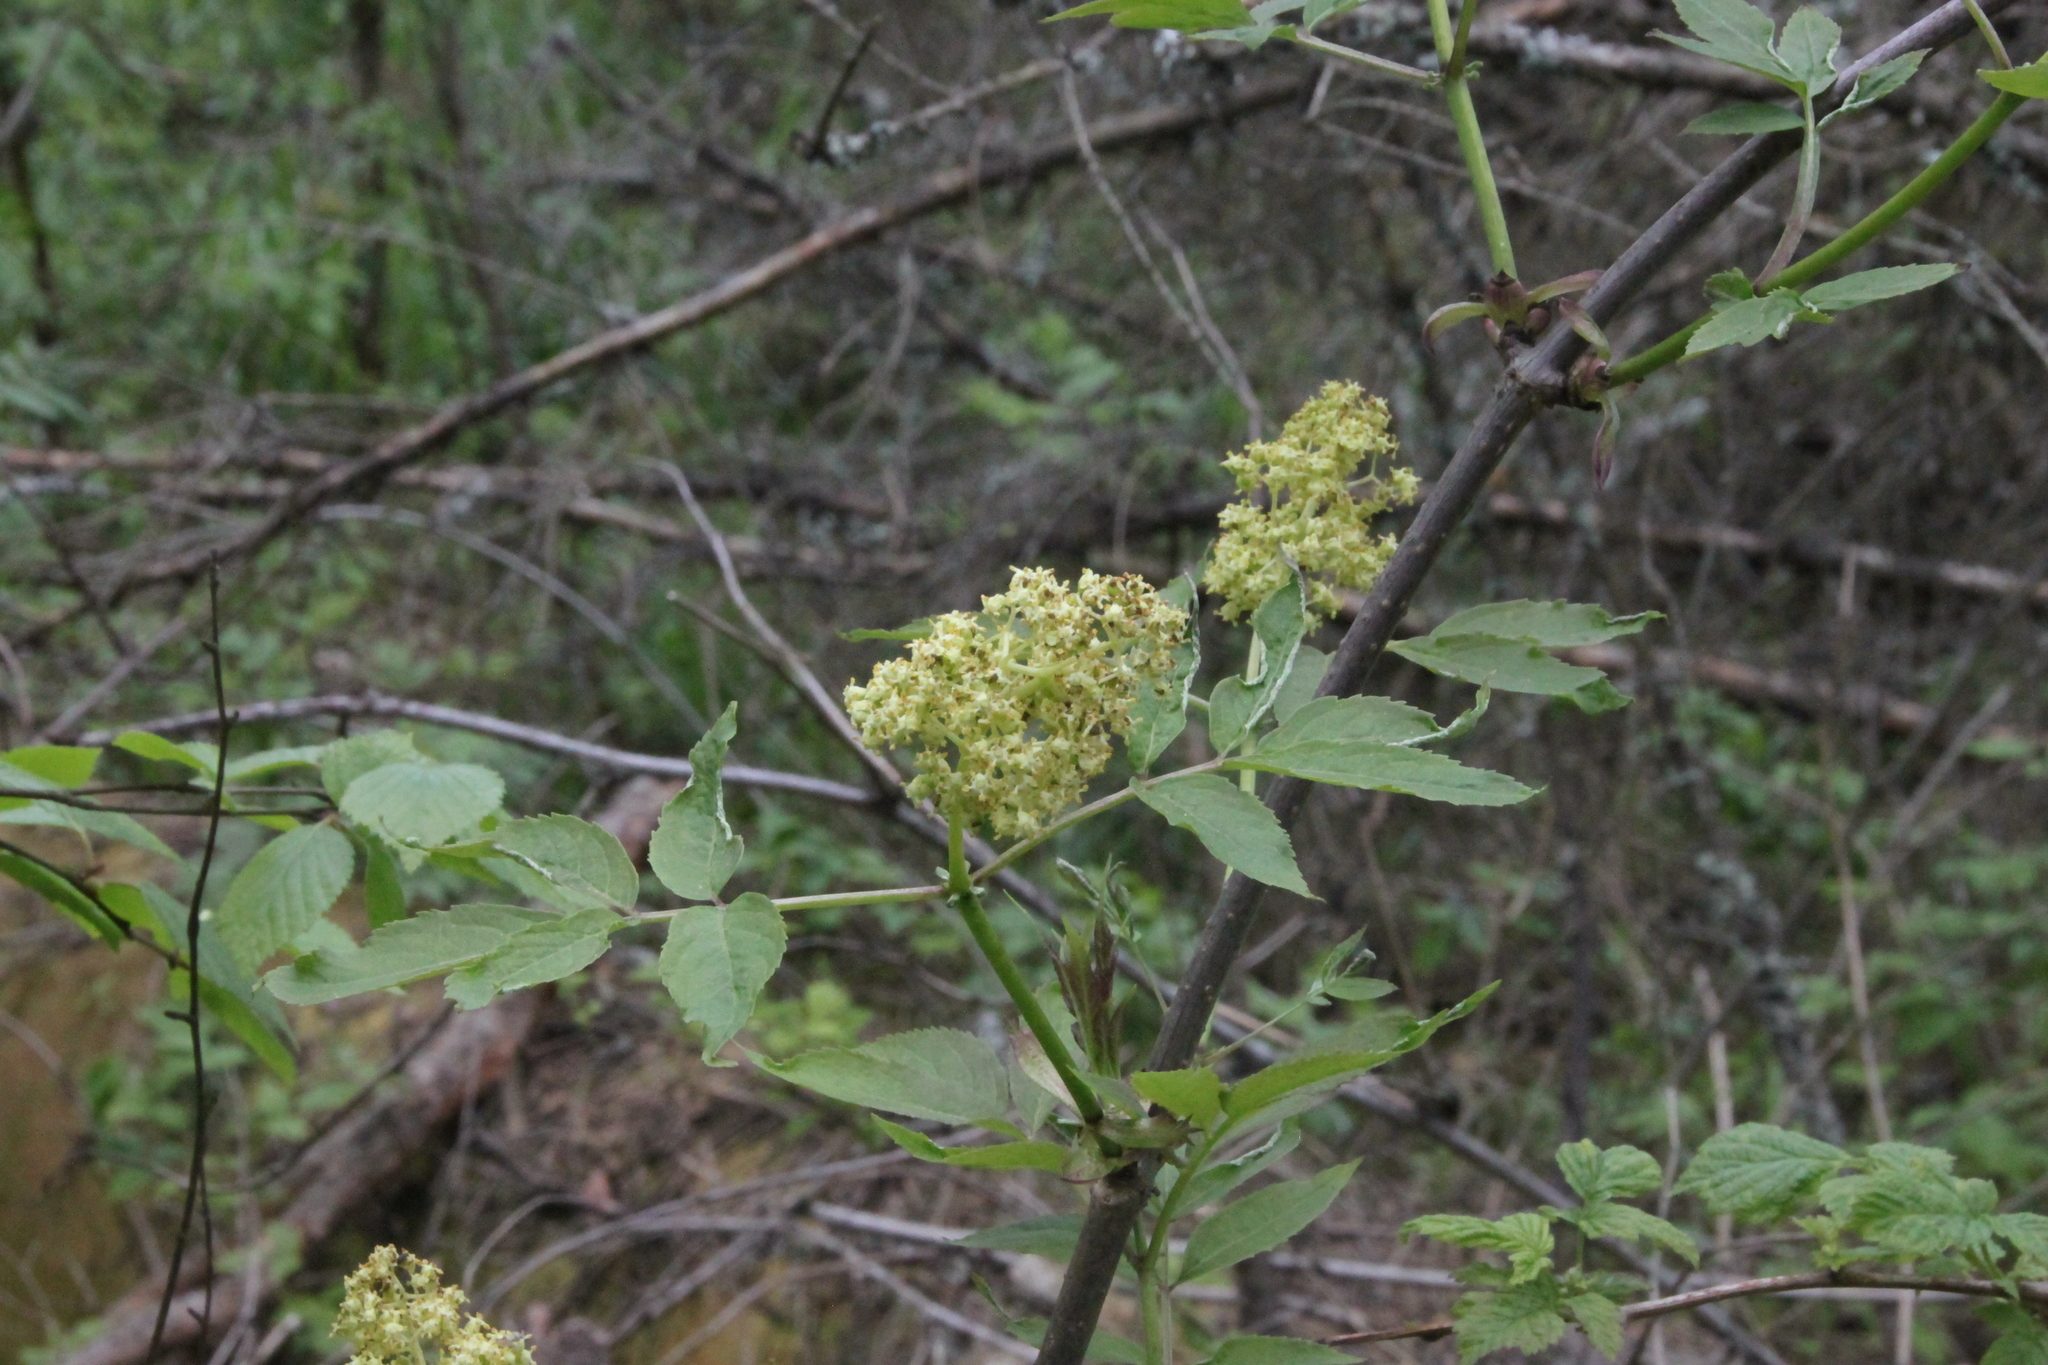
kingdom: Plantae
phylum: Tracheophyta
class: Magnoliopsida
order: Dipsacales
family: Viburnaceae
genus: Sambucus
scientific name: Sambucus racemosa
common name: Red-berried elder
